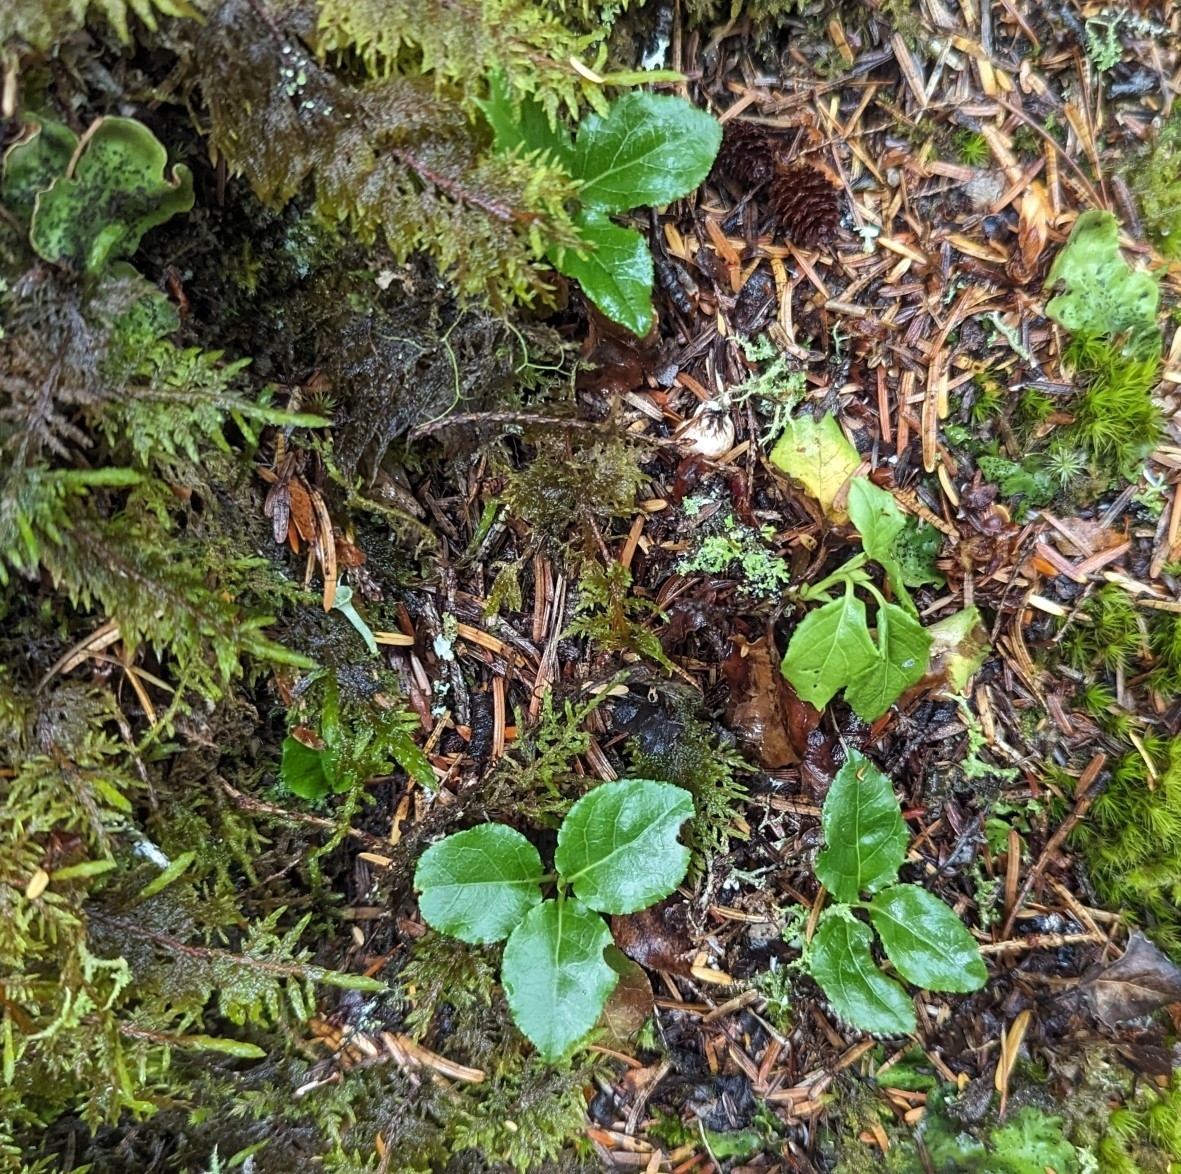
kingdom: Plantae
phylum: Tracheophyta
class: Magnoliopsida
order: Ericales
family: Ericaceae
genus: Orthilia
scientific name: Orthilia secunda
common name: One-sided orthilia
